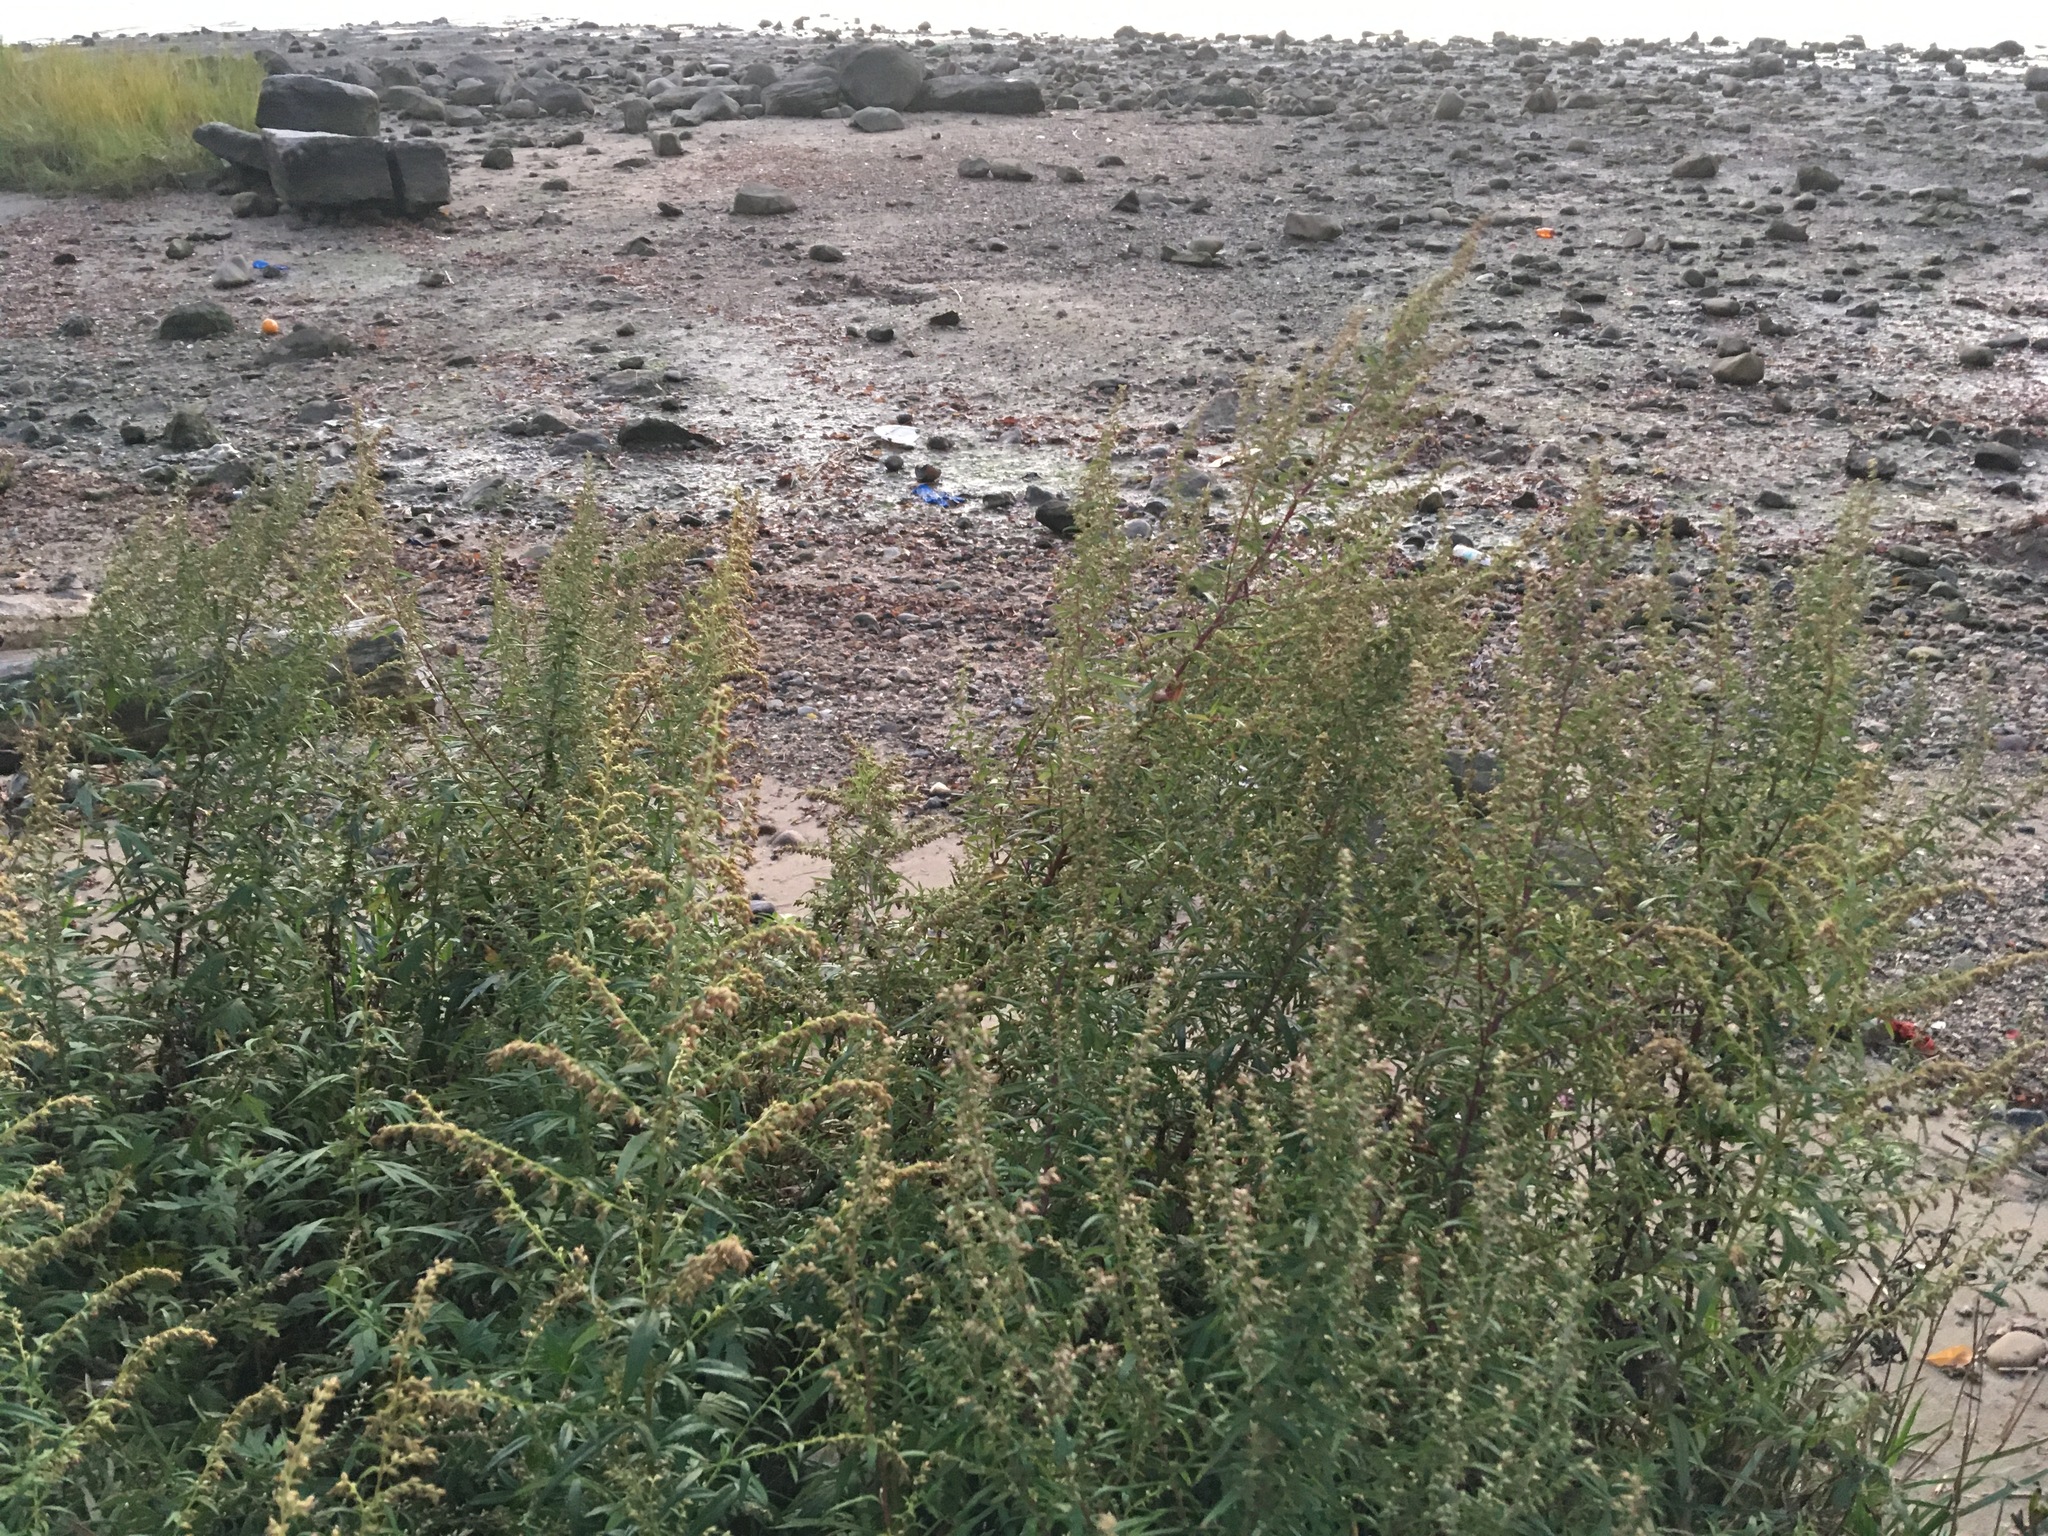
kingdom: Plantae
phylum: Tracheophyta
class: Magnoliopsida
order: Asterales
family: Asteraceae
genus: Artemisia
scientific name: Artemisia vulgaris
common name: Mugwort
